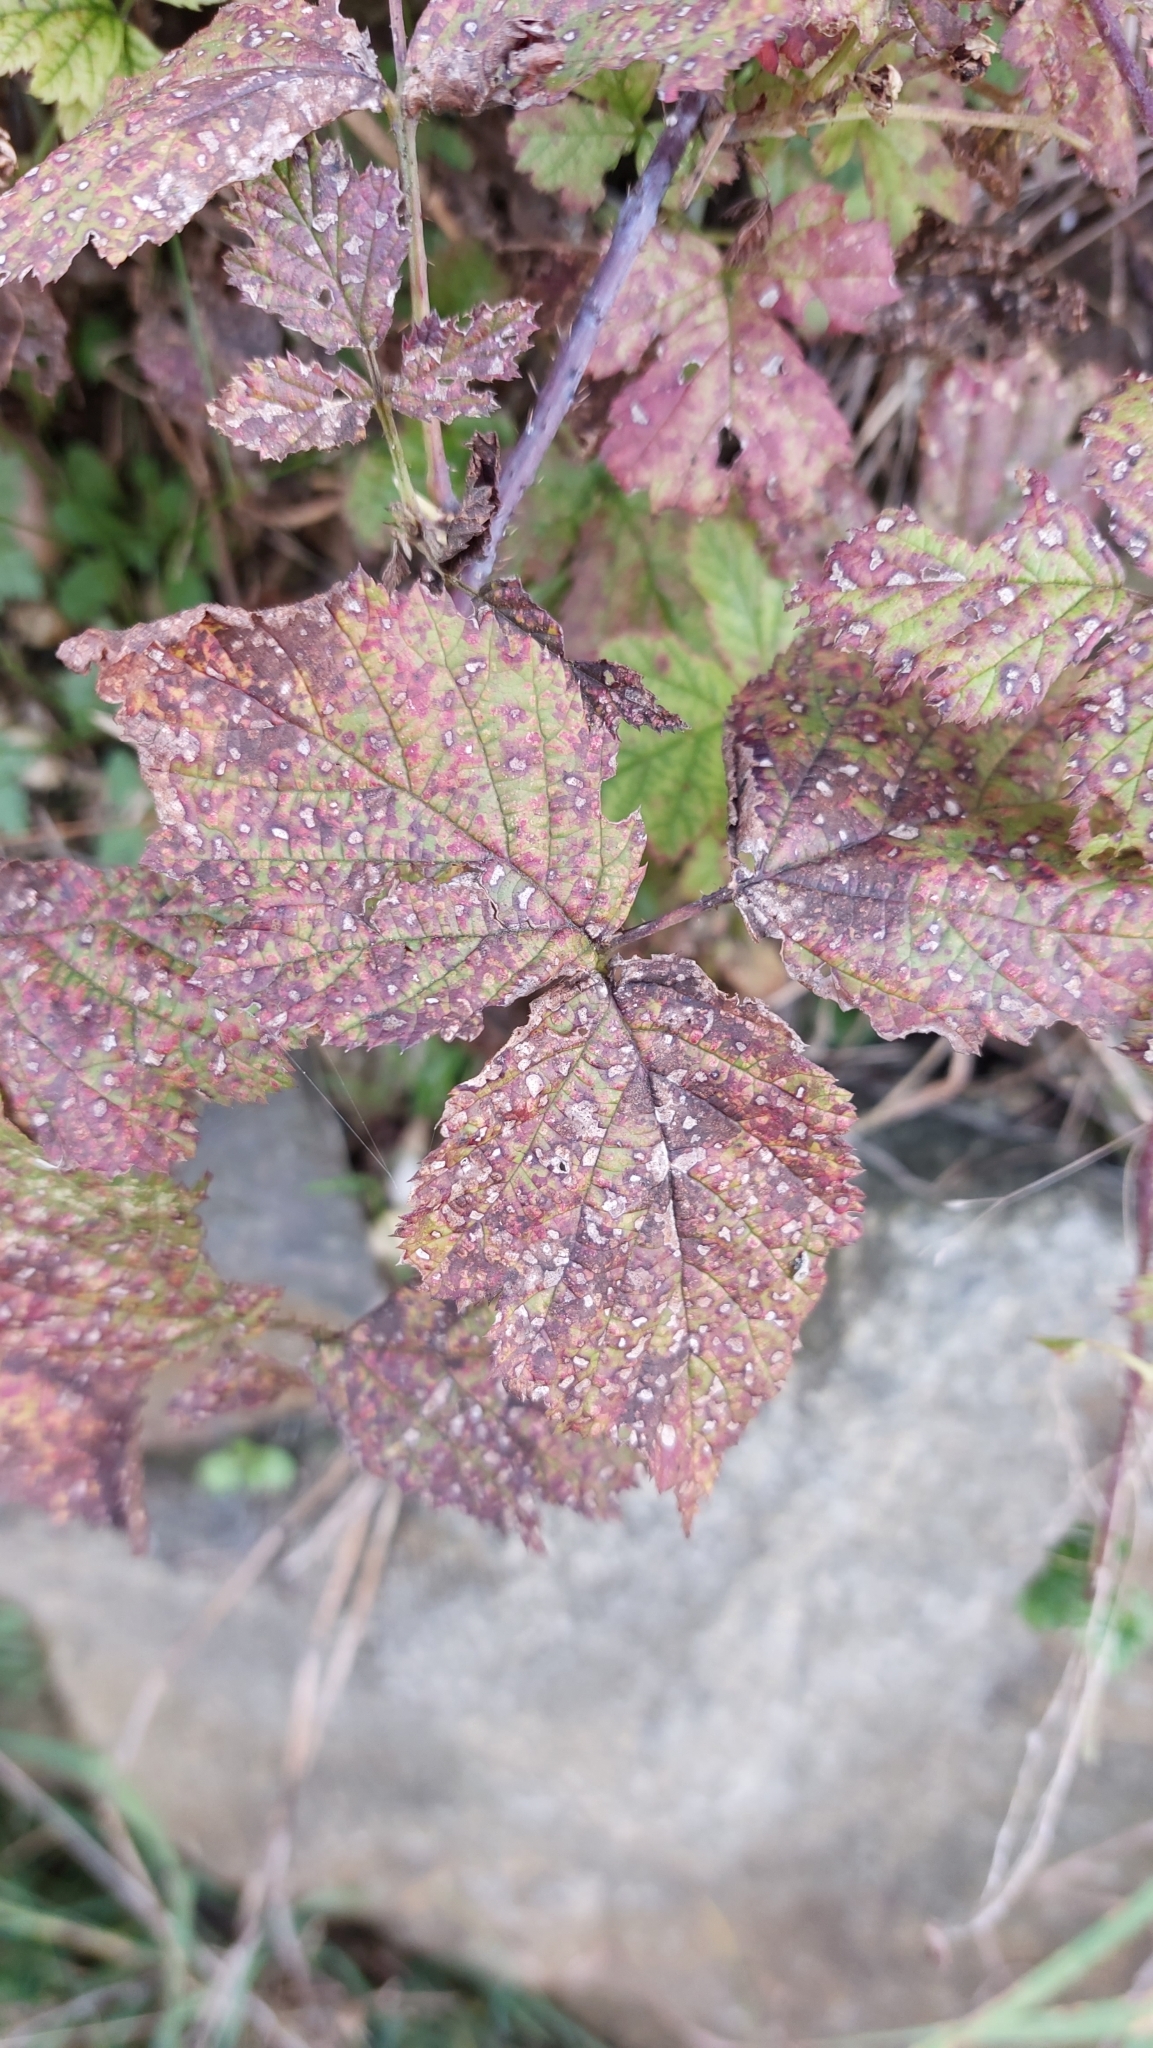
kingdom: Plantae
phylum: Tracheophyta
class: Magnoliopsida
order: Rosales
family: Rosaceae
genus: Rubus
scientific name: Rubus caesius
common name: Dewberry
